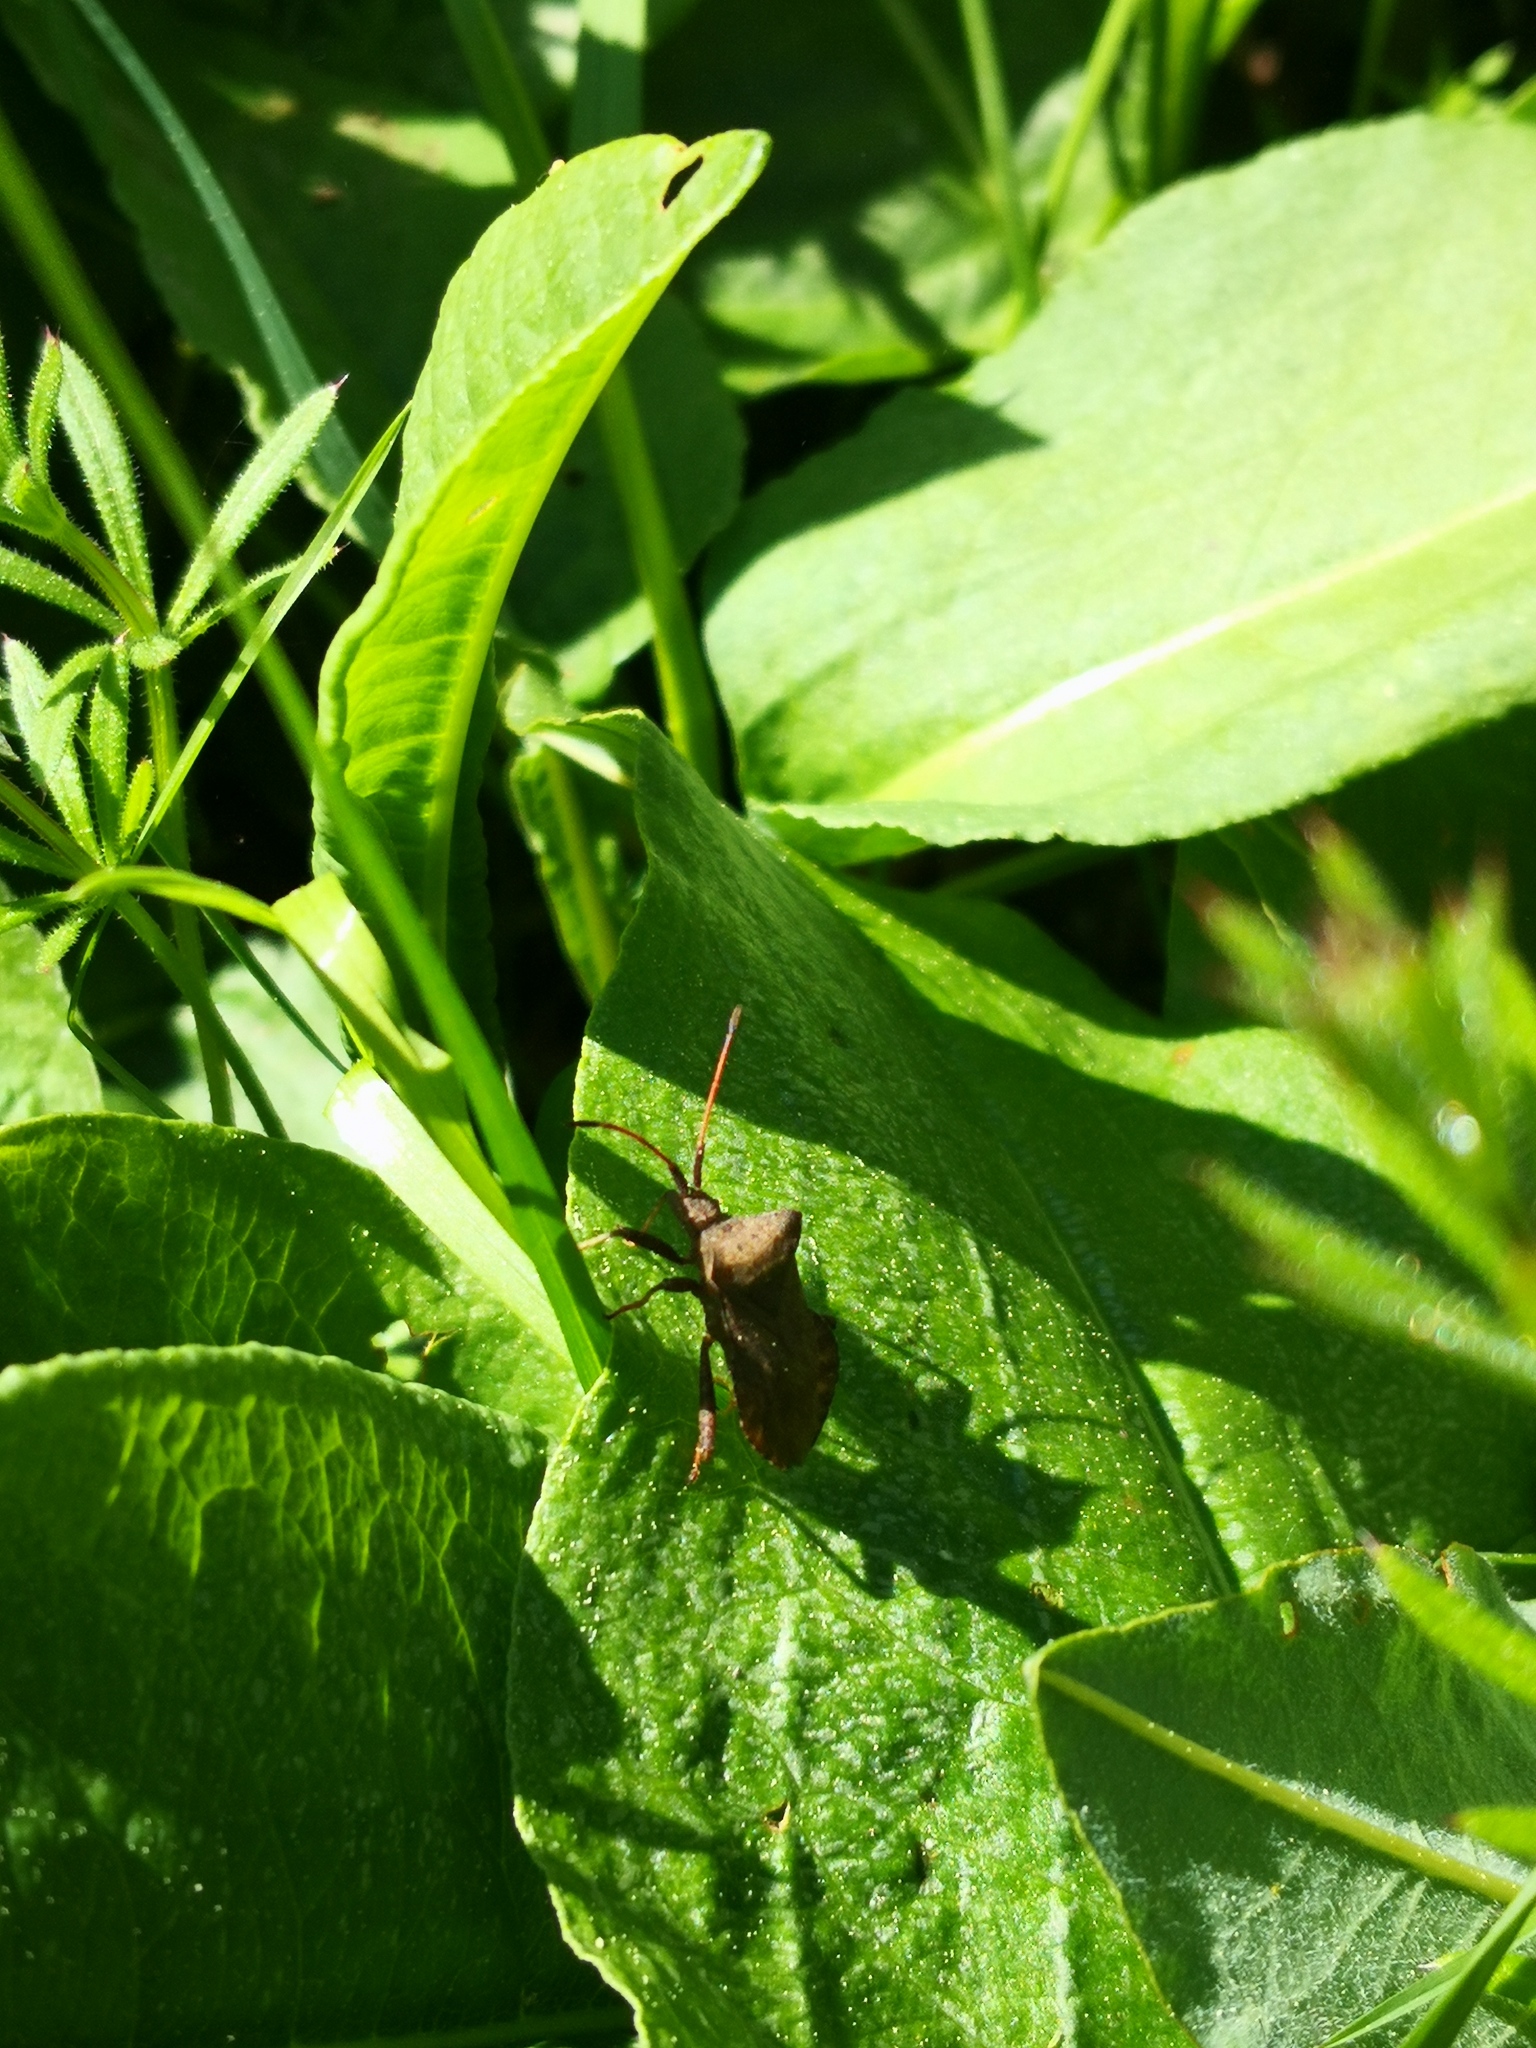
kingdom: Animalia
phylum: Arthropoda
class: Insecta
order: Hemiptera
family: Coreidae
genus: Coreus
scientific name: Coreus marginatus
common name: Dock bug
